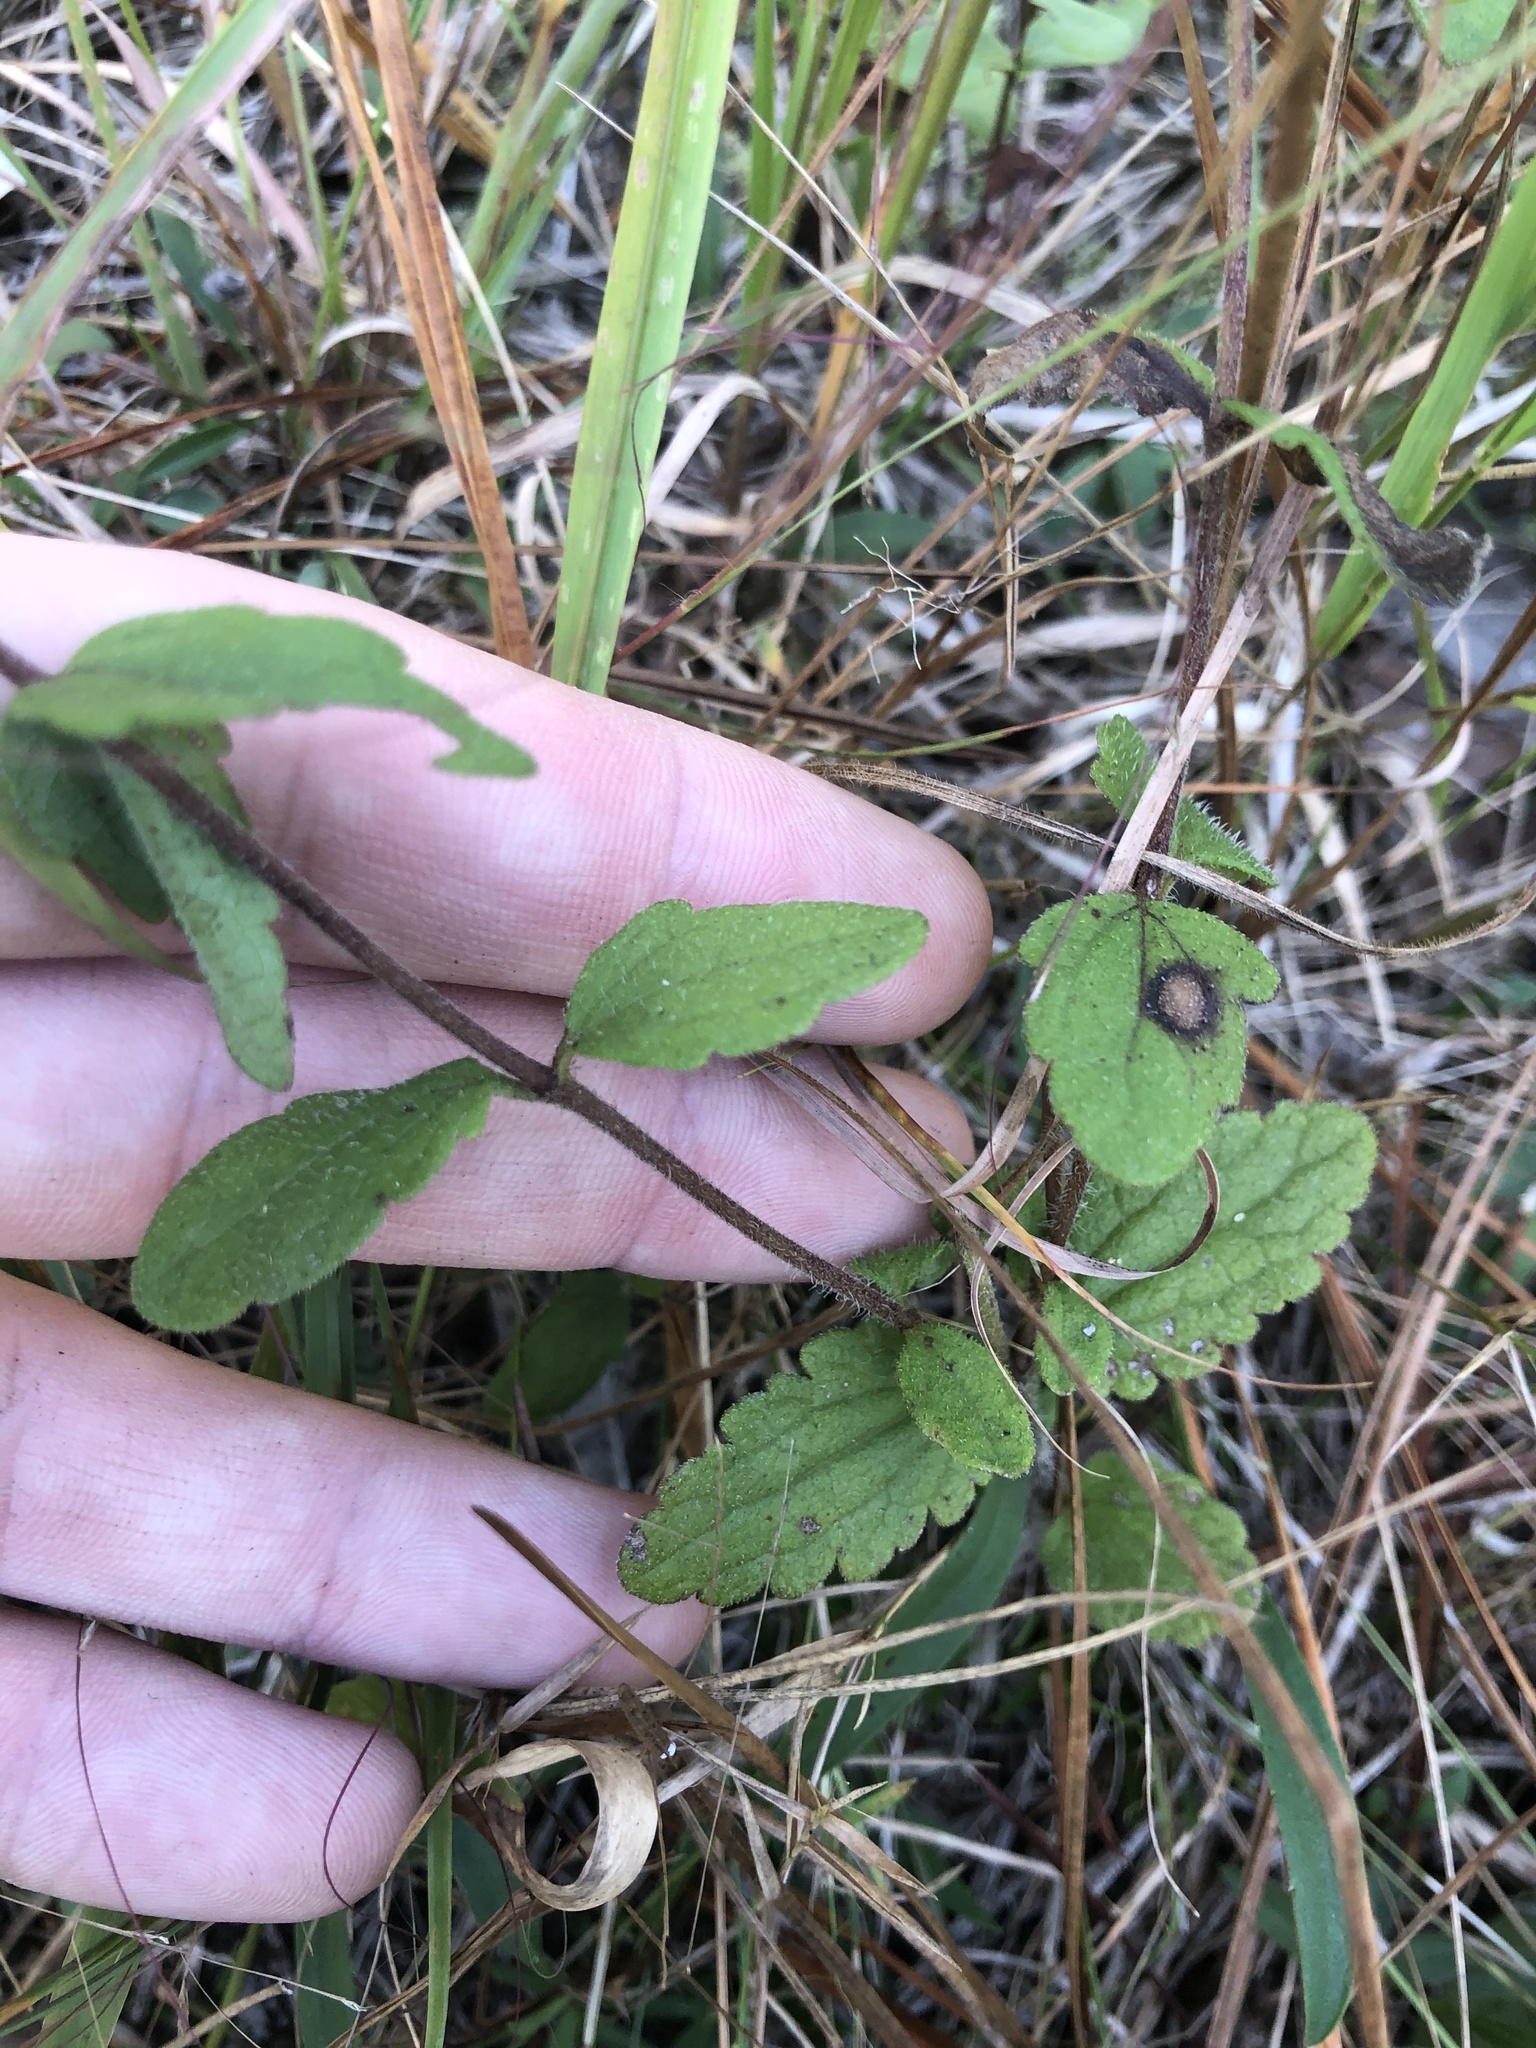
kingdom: Plantae
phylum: Tracheophyta
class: Magnoliopsida
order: Asterales
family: Asteraceae
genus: Eupatorium
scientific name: Eupatorium pilosum
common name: Rough boneset
